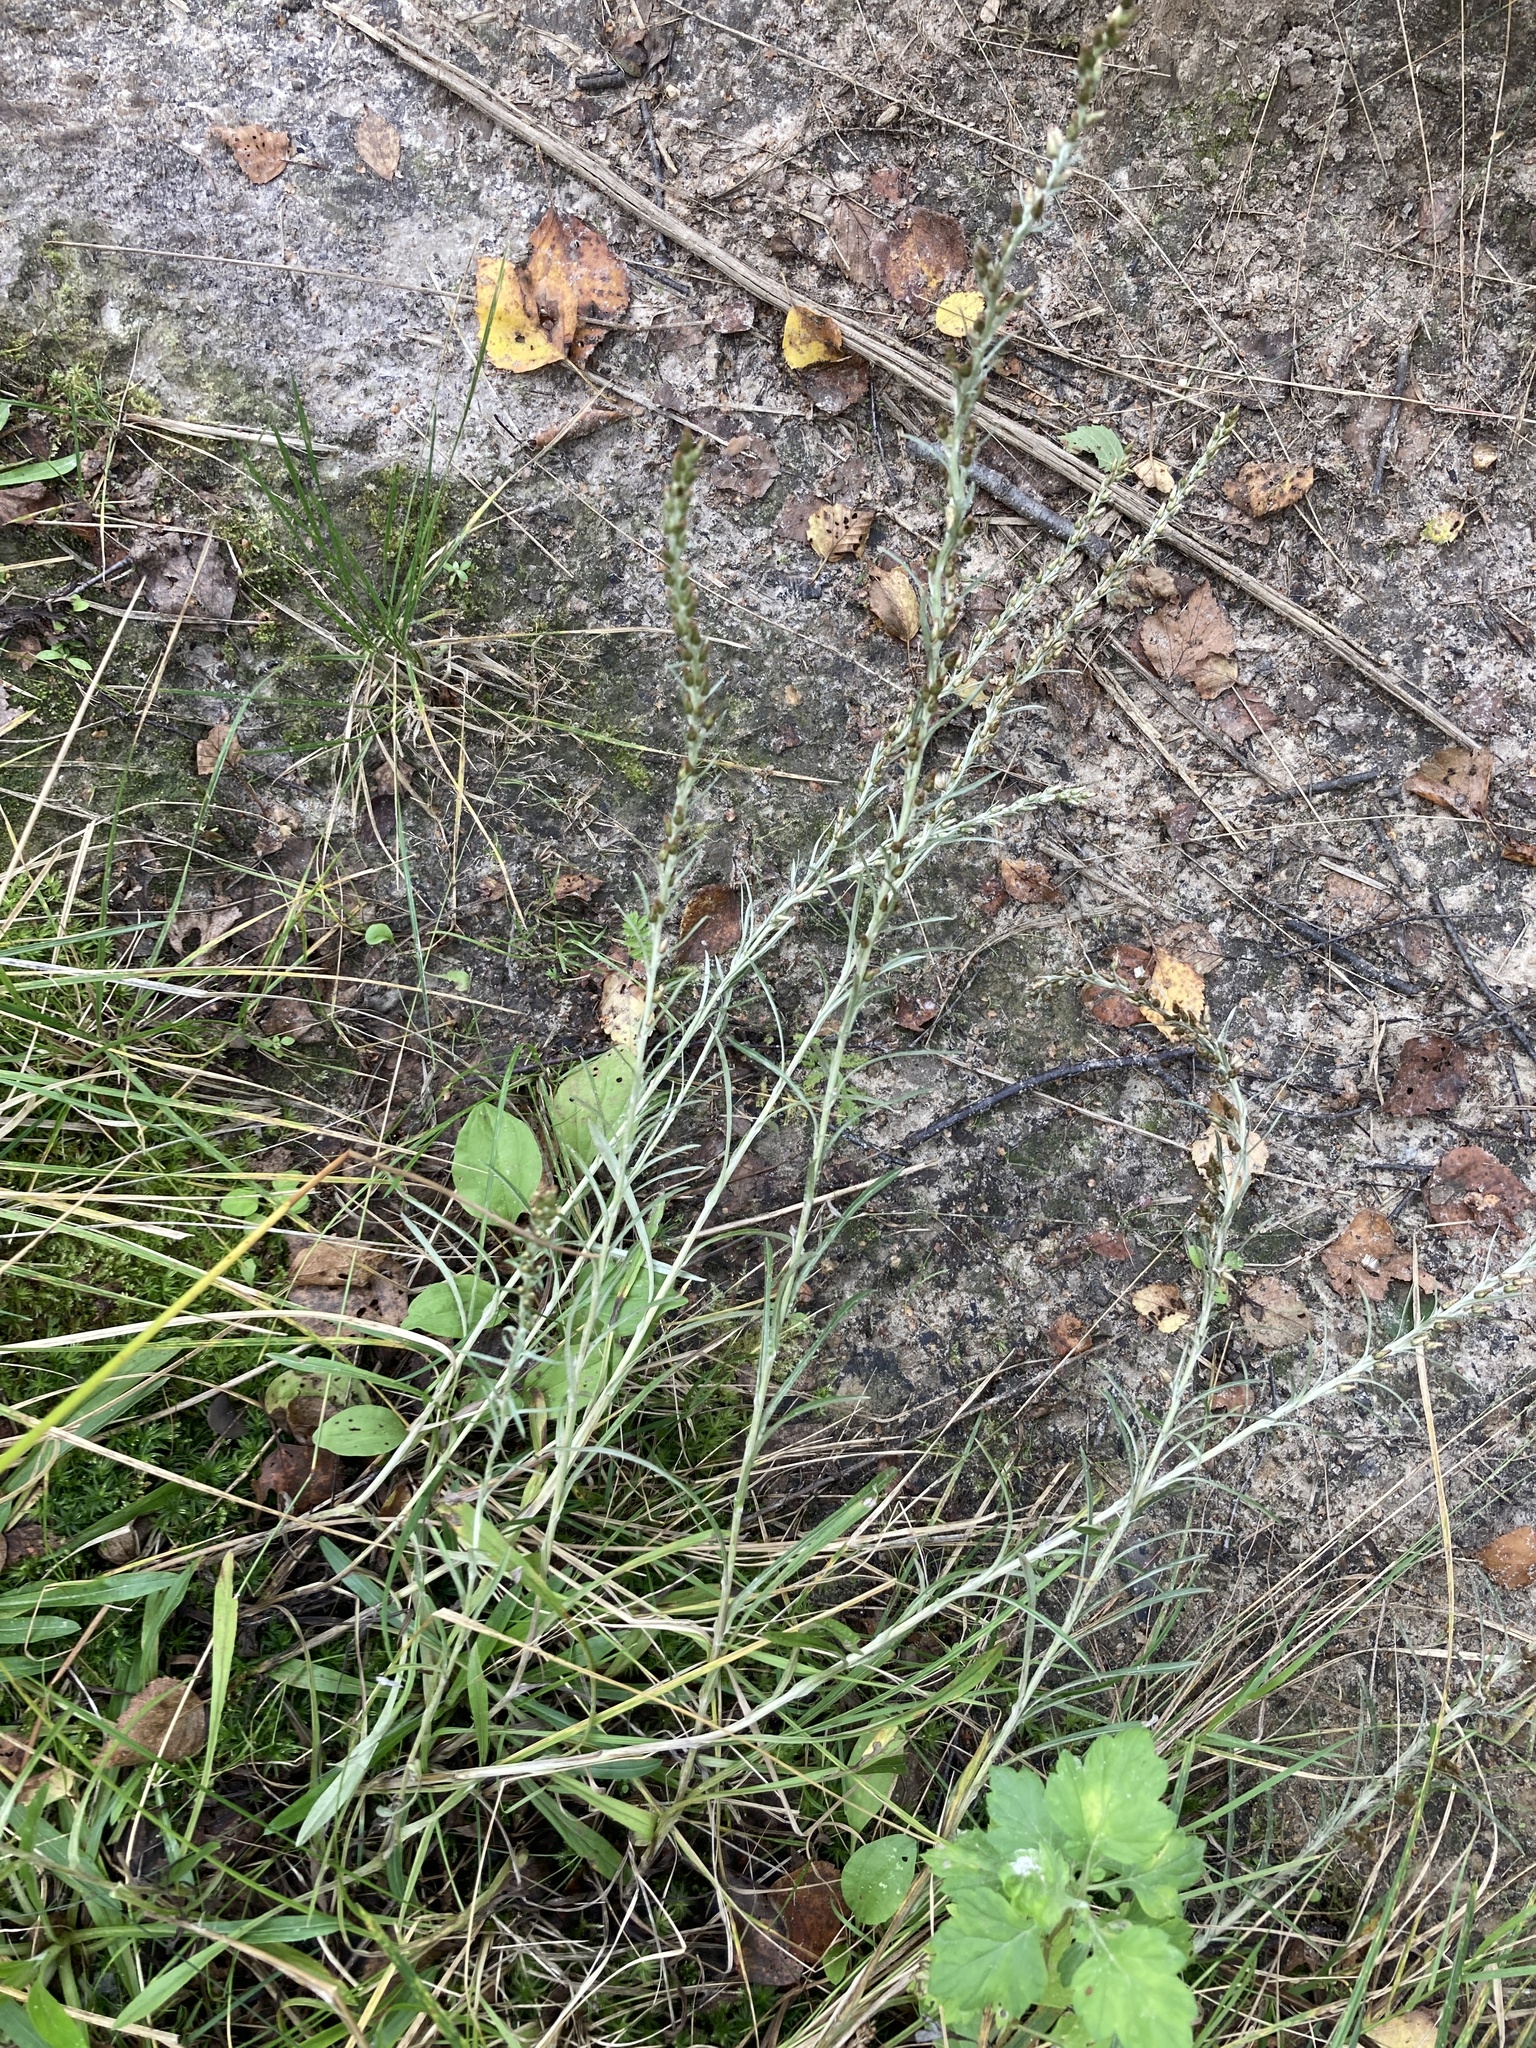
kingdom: Plantae
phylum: Tracheophyta
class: Magnoliopsida
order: Asterales
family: Asteraceae
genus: Omalotheca
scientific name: Omalotheca sylvatica
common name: Heath cudweed
